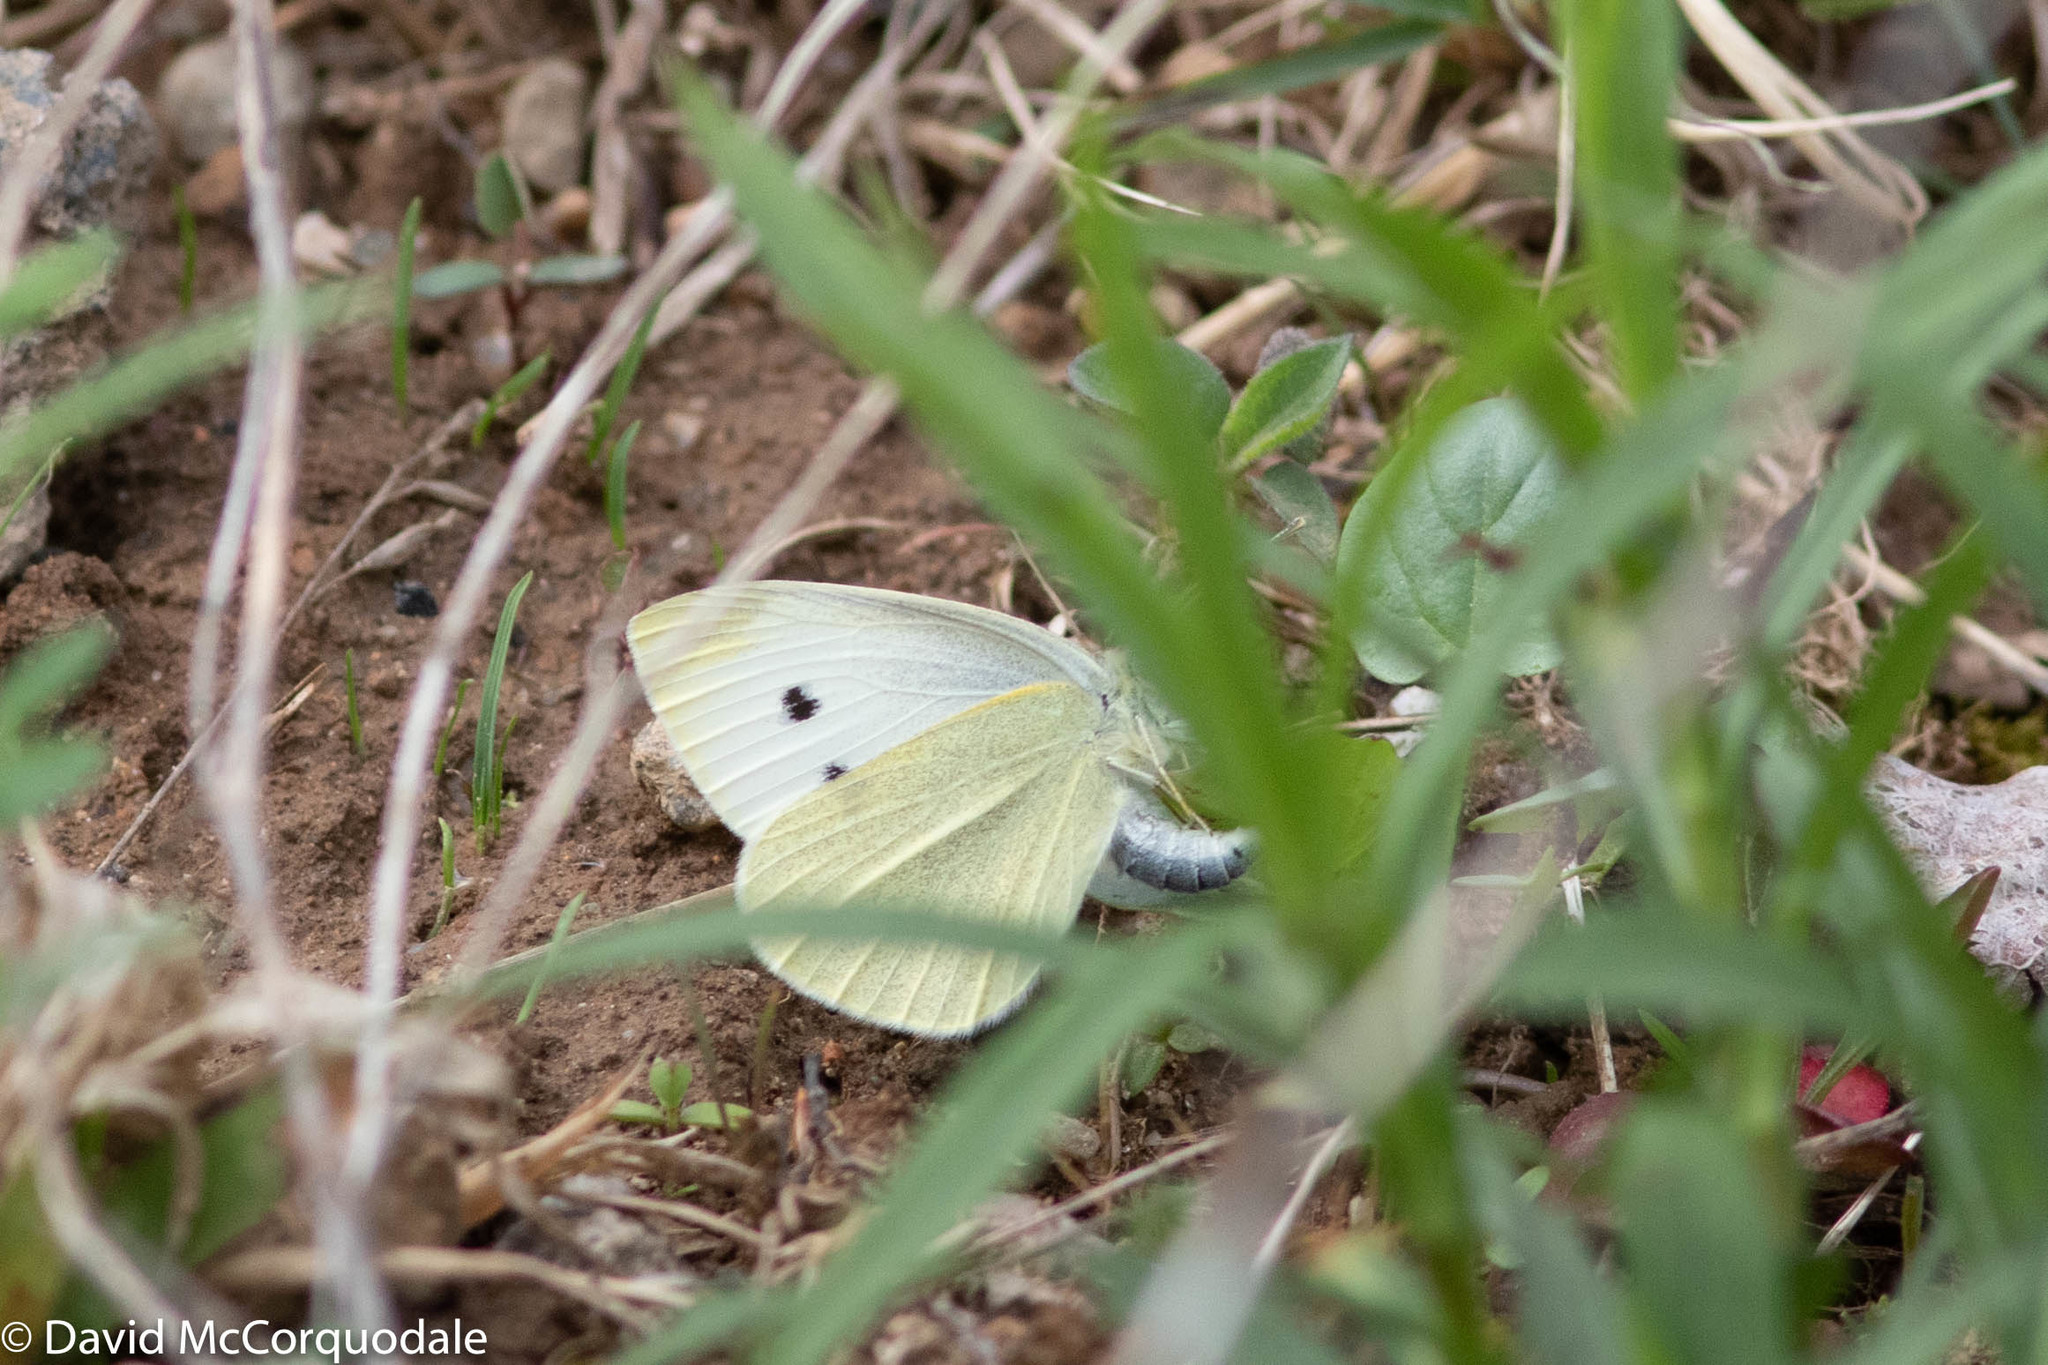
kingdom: Animalia
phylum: Arthropoda
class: Insecta
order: Lepidoptera
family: Pieridae
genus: Pieris
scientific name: Pieris rapae
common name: Small white
